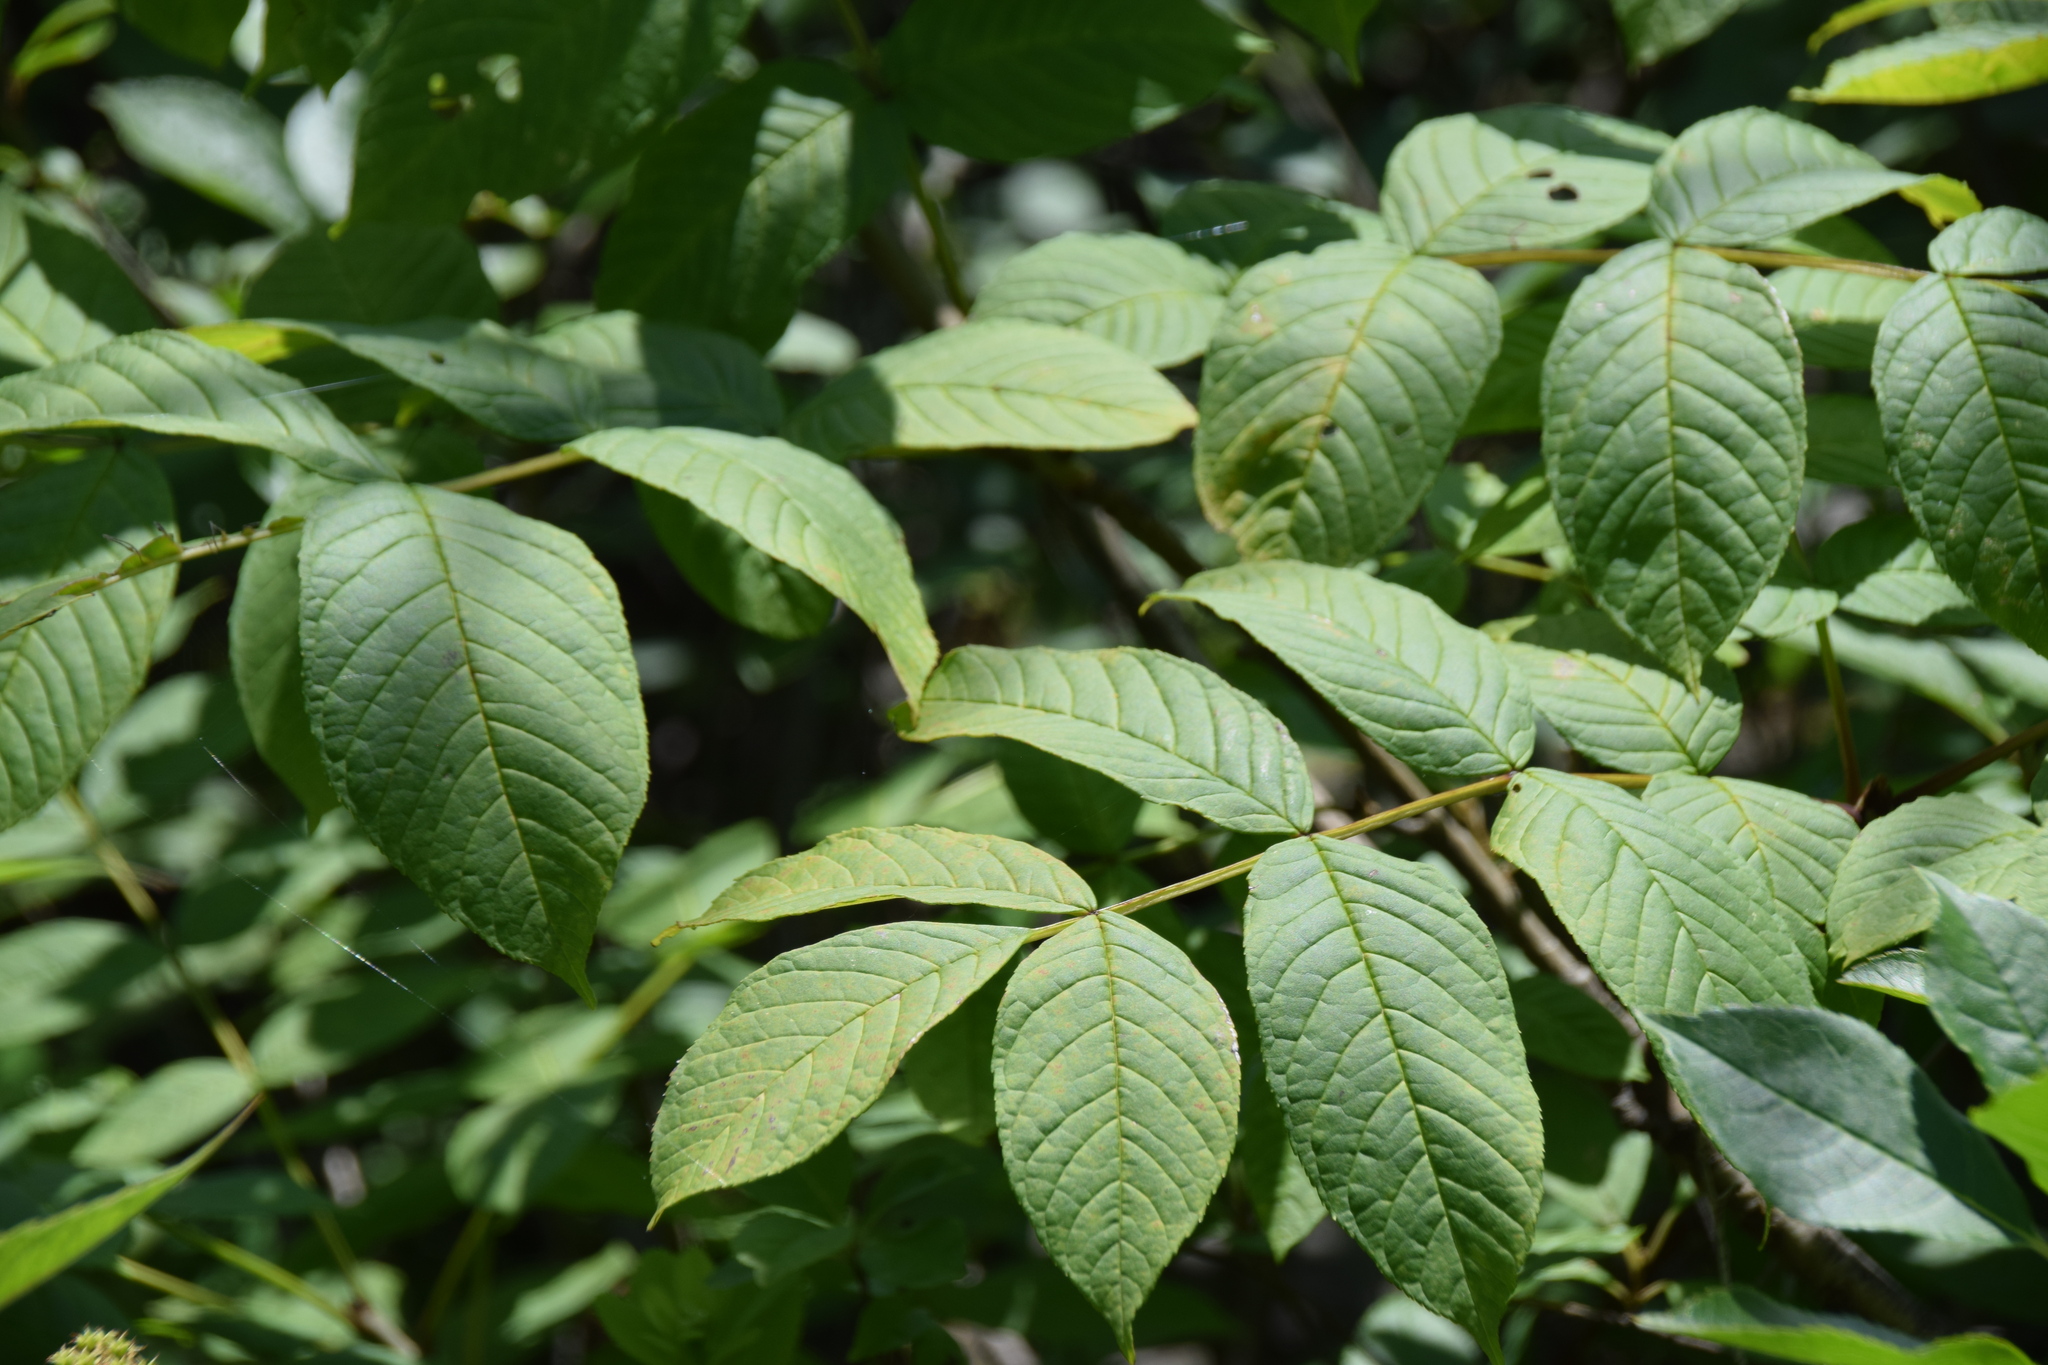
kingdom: Plantae
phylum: Tracheophyta
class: Magnoliopsida
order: Lamiales
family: Oleaceae
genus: Fraxinus
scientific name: Fraxinus nigra
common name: Black ash
